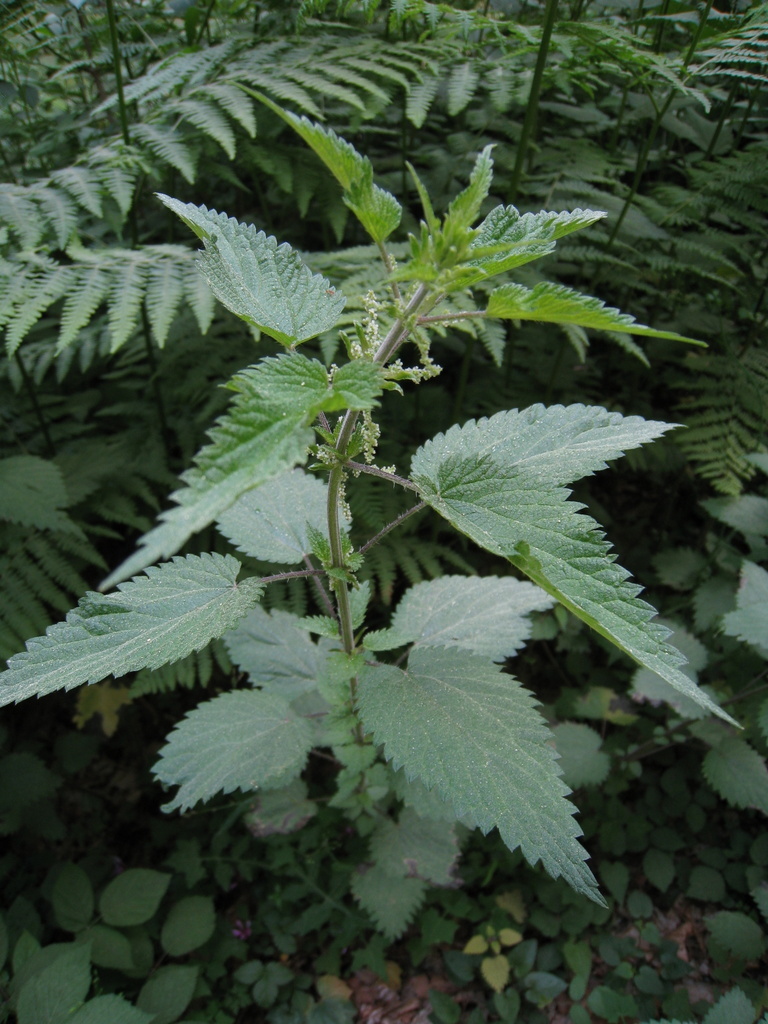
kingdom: Plantae
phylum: Tracheophyta
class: Magnoliopsida
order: Rosales
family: Urticaceae
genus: Urtica
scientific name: Urtica dioica
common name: Common nettle
